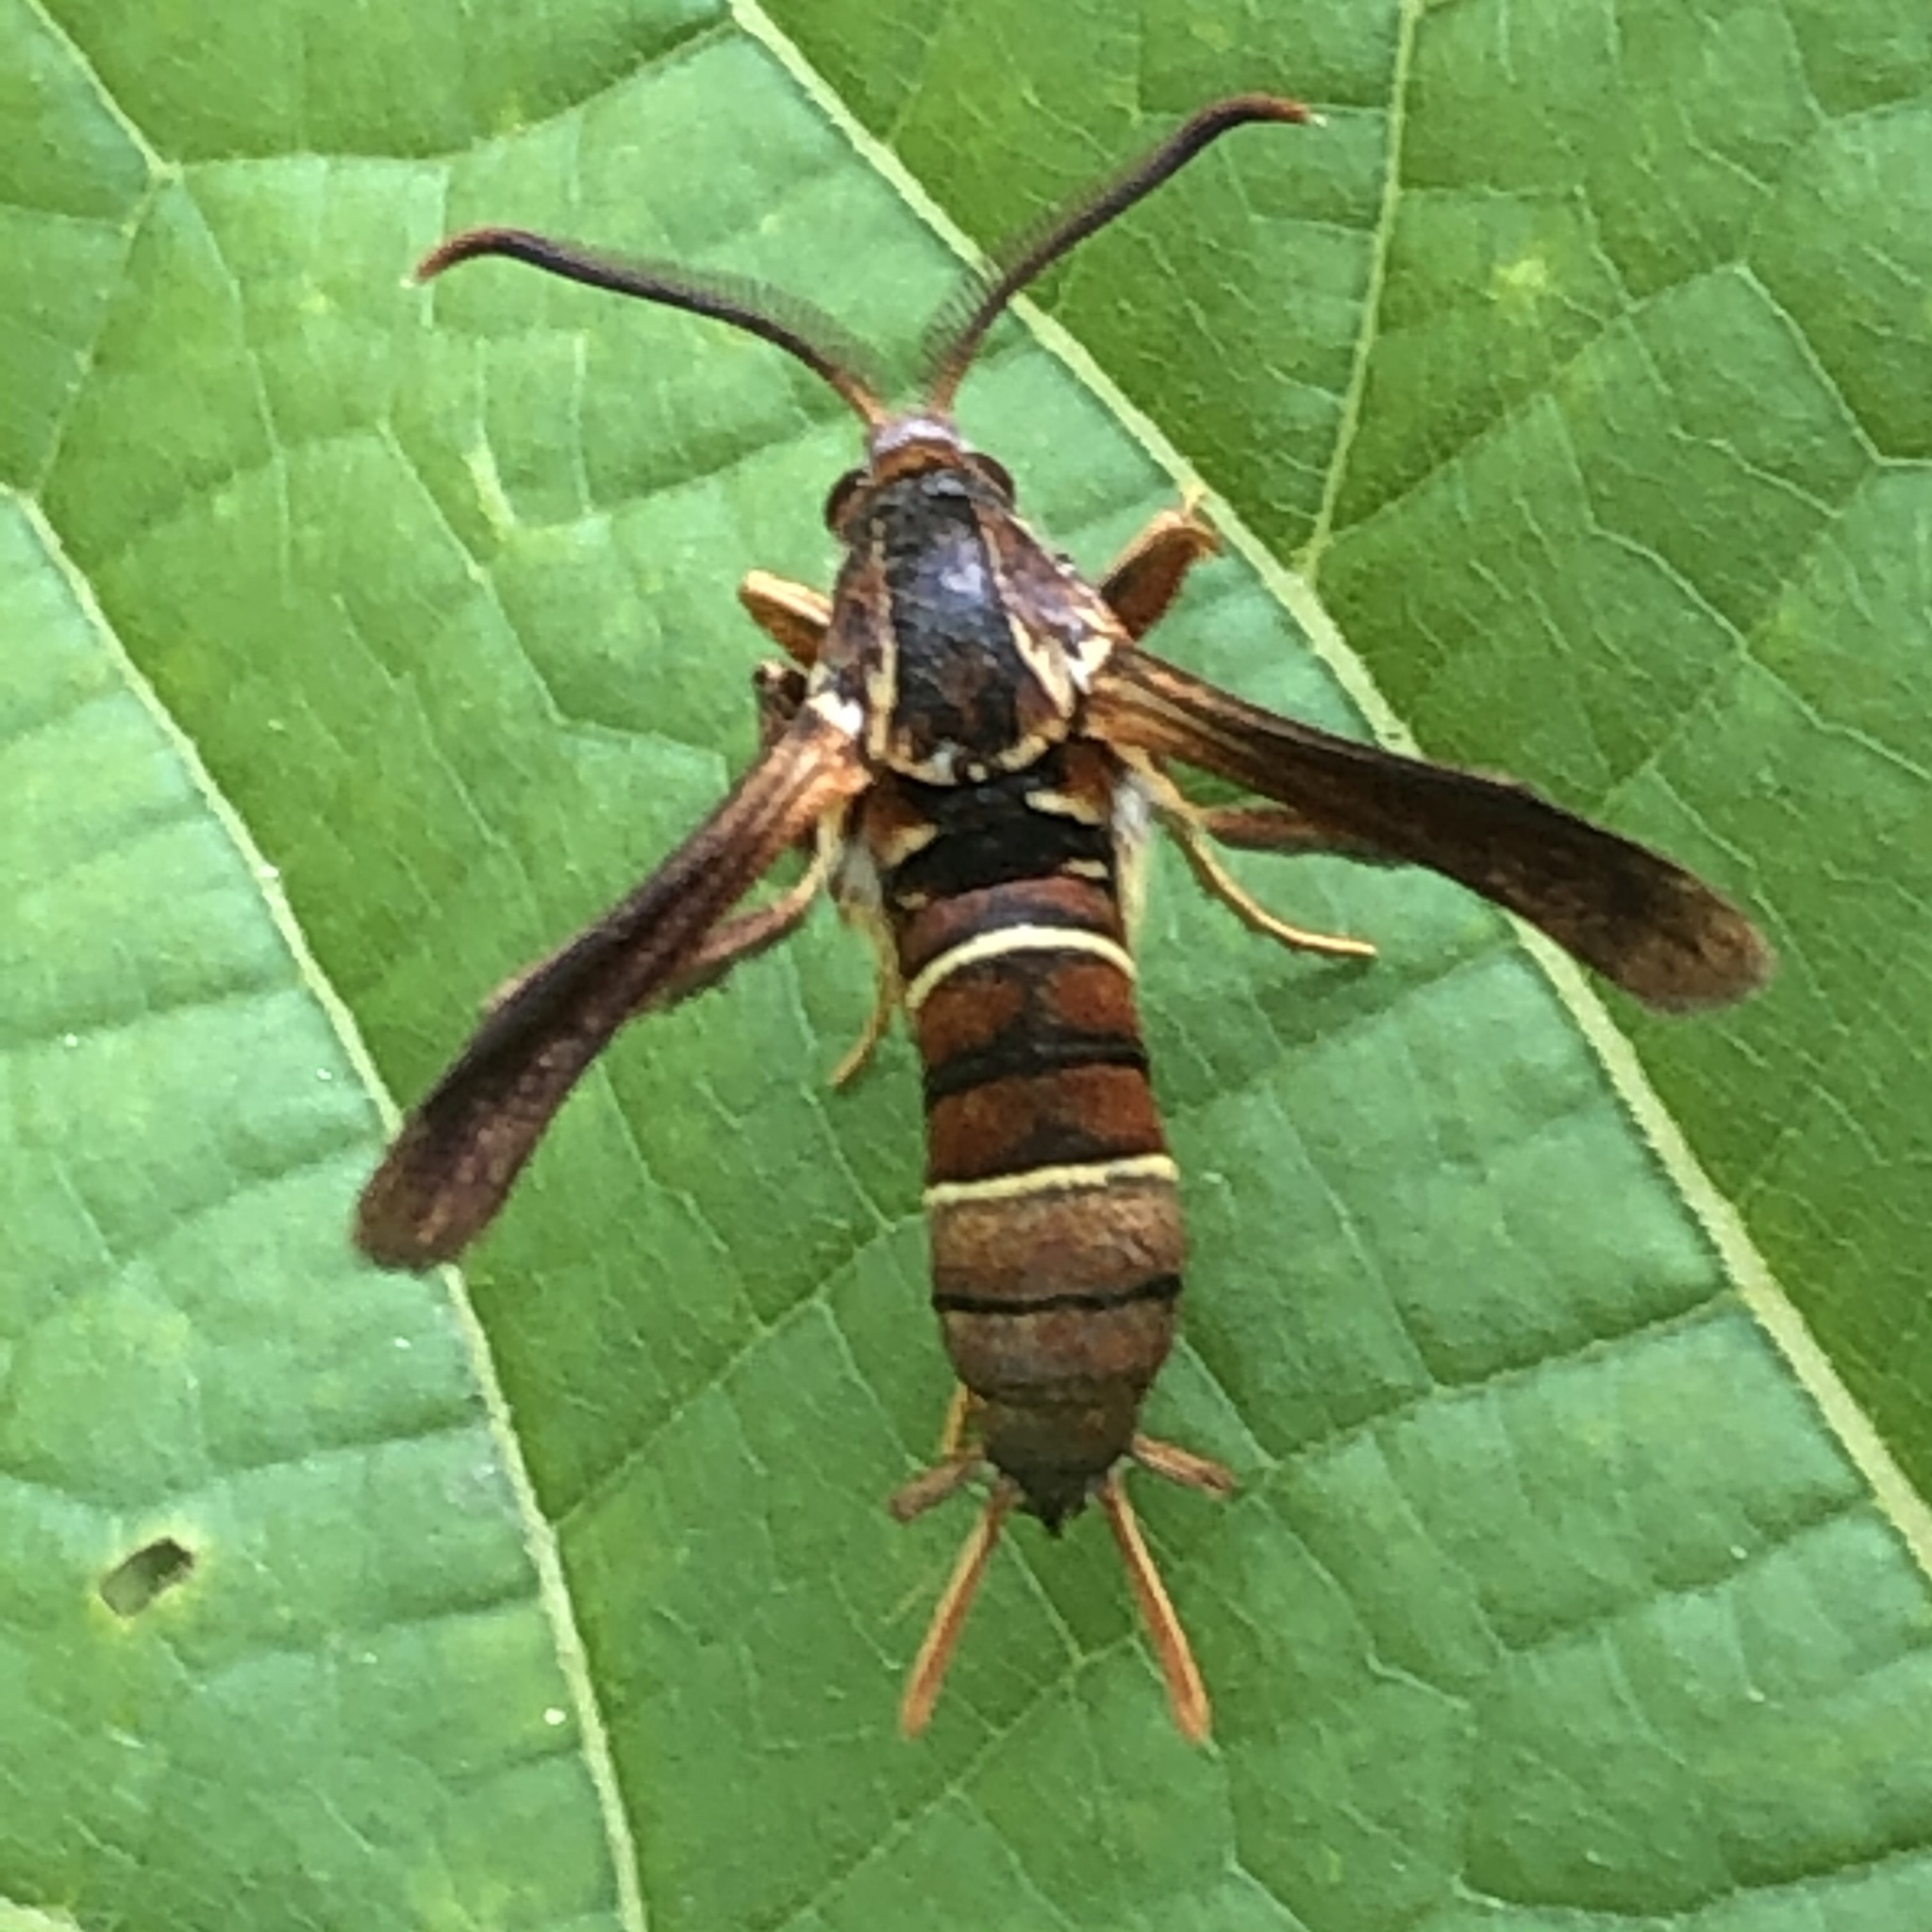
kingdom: Animalia
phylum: Arthropoda
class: Insecta
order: Lepidoptera
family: Sesiidae
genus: Vitacea
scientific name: Vitacea polistiformis
